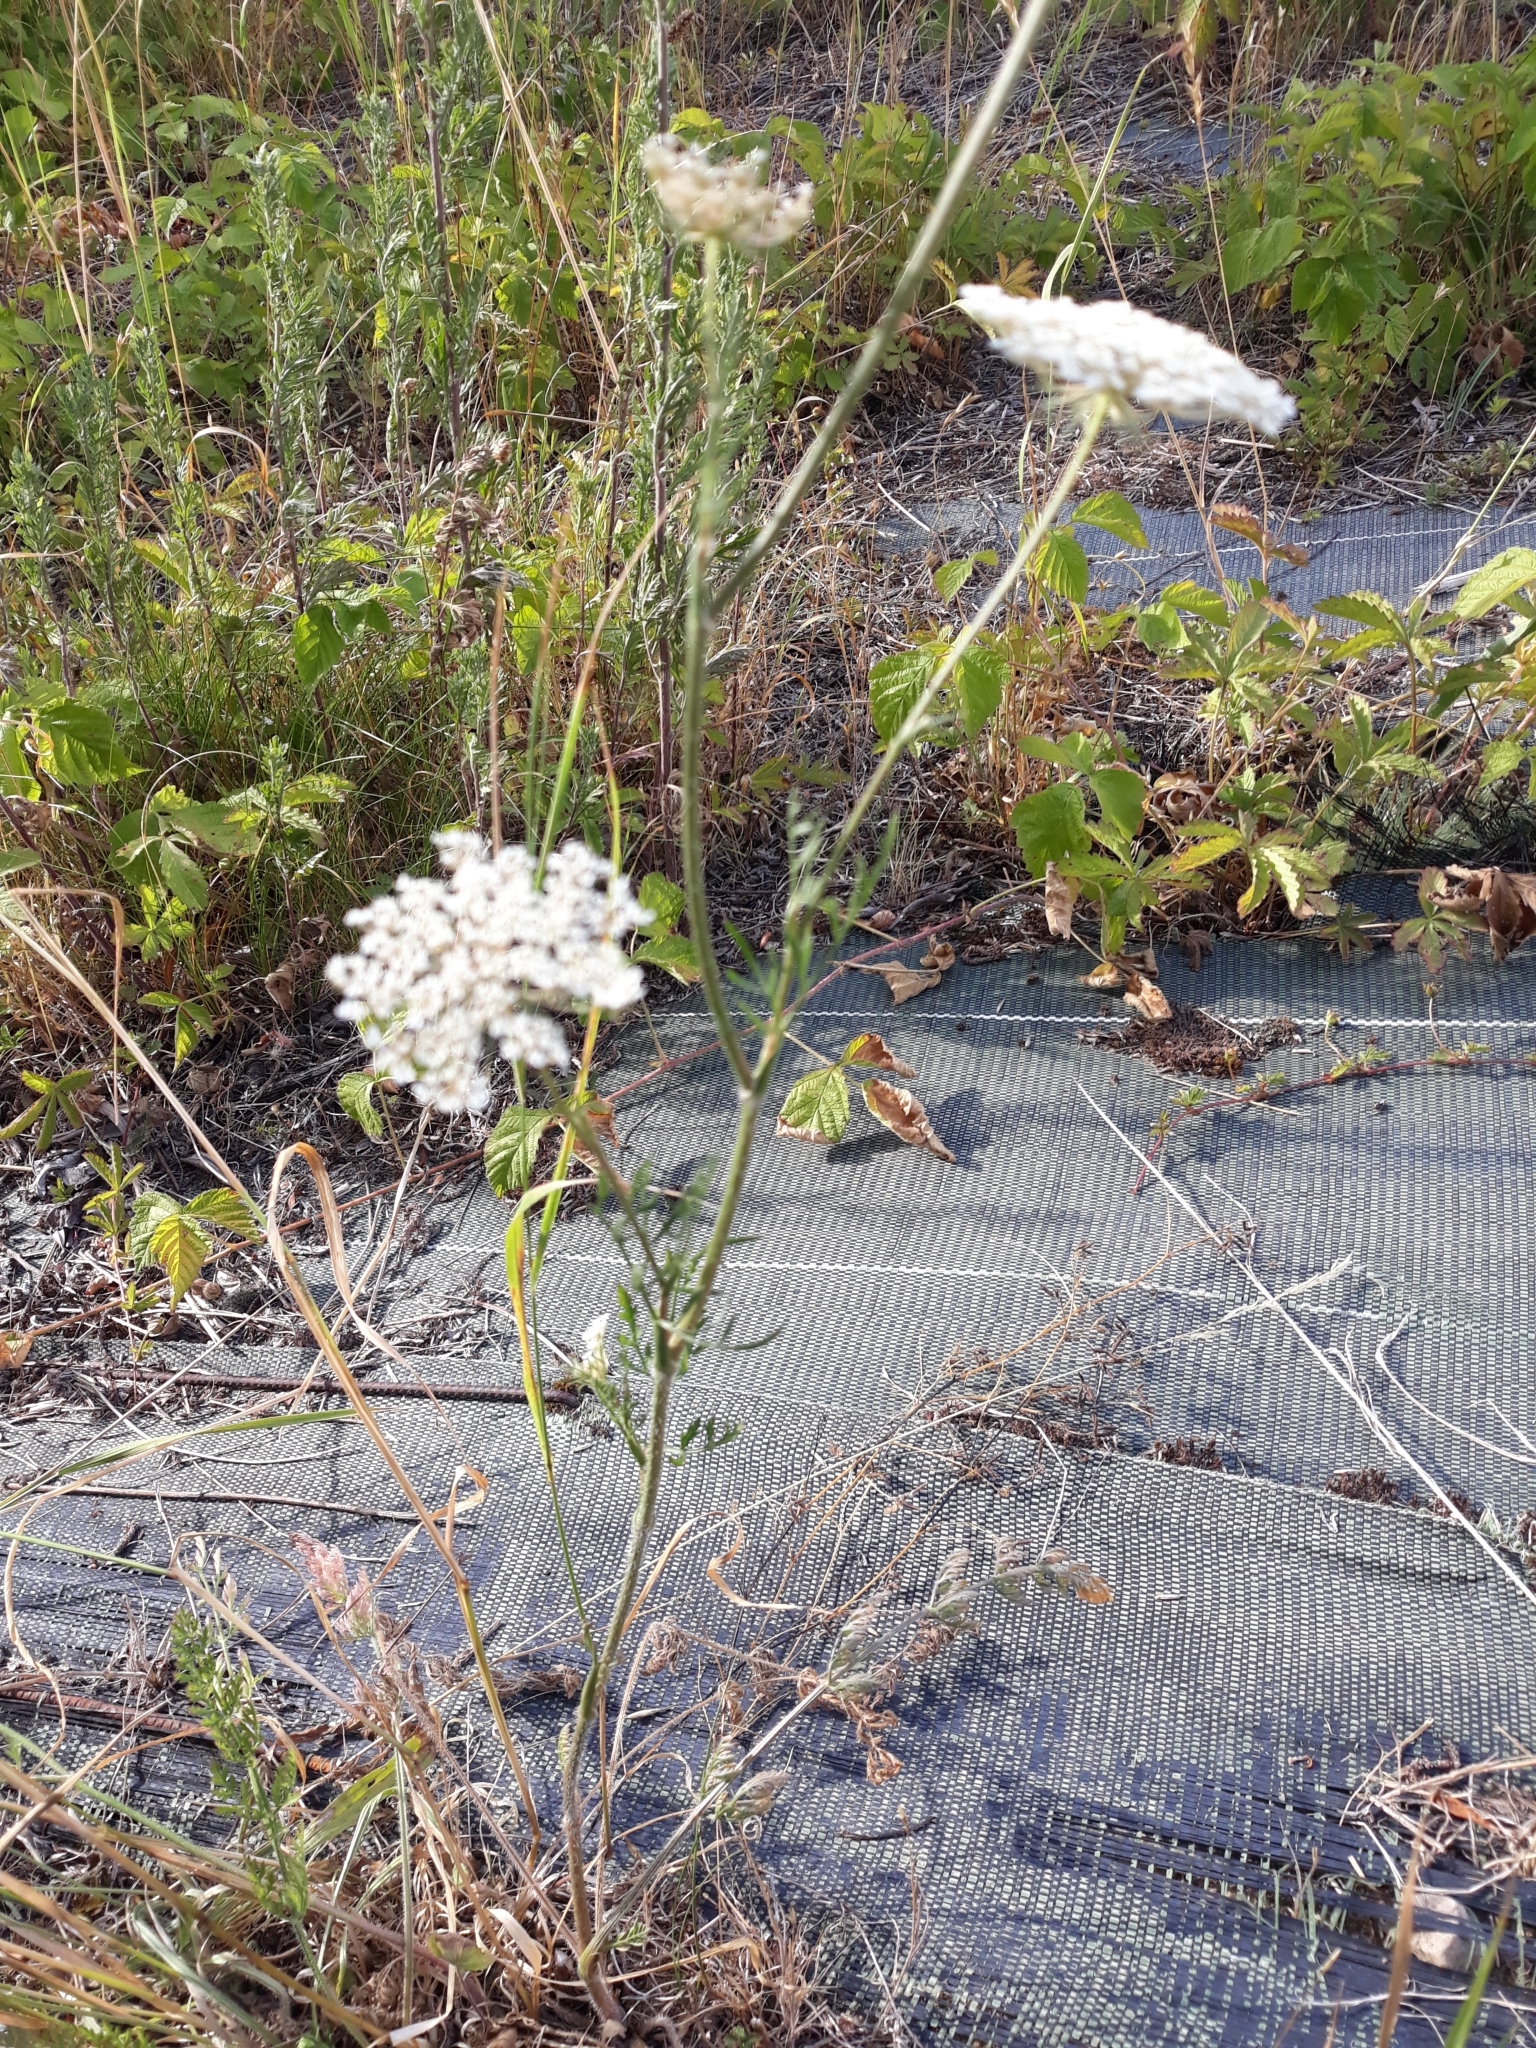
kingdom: Plantae
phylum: Tracheophyta
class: Magnoliopsida
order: Apiales
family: Apiaceae
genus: Daucus
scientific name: Daucus carota
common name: Wild carrot
